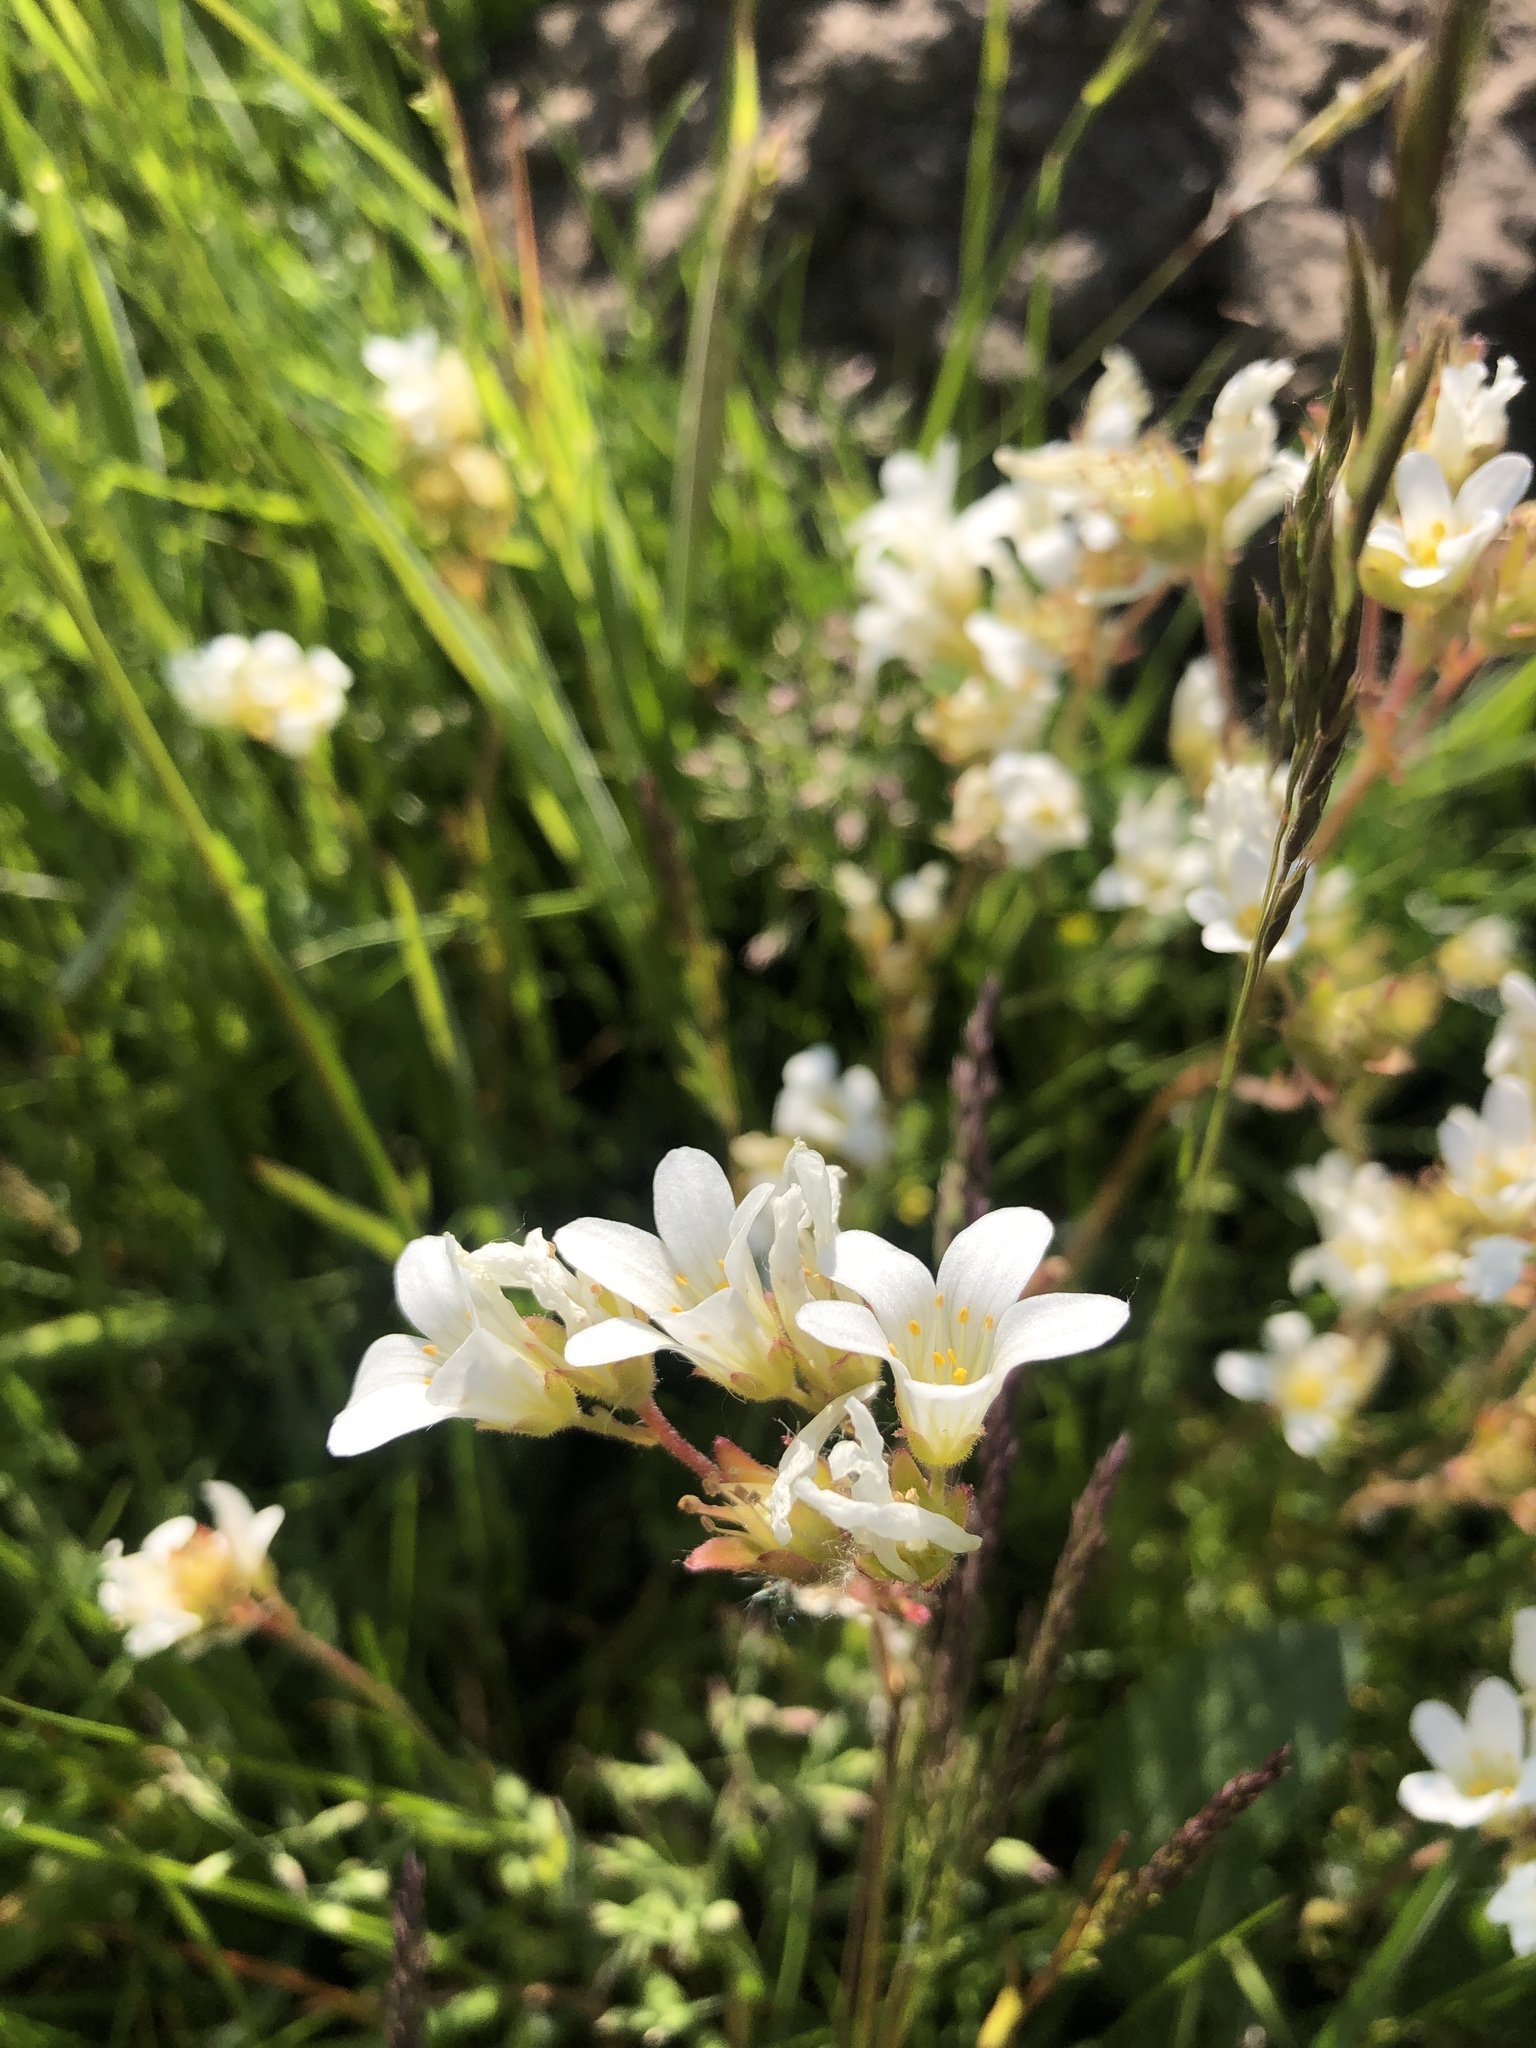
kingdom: Plantae
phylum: Tracheophyta
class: Magnoliopsida
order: Saxifragales
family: Saxifragaceae
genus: Saxifraga
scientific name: Saxifraga granulata
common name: Meadow saxifrage
